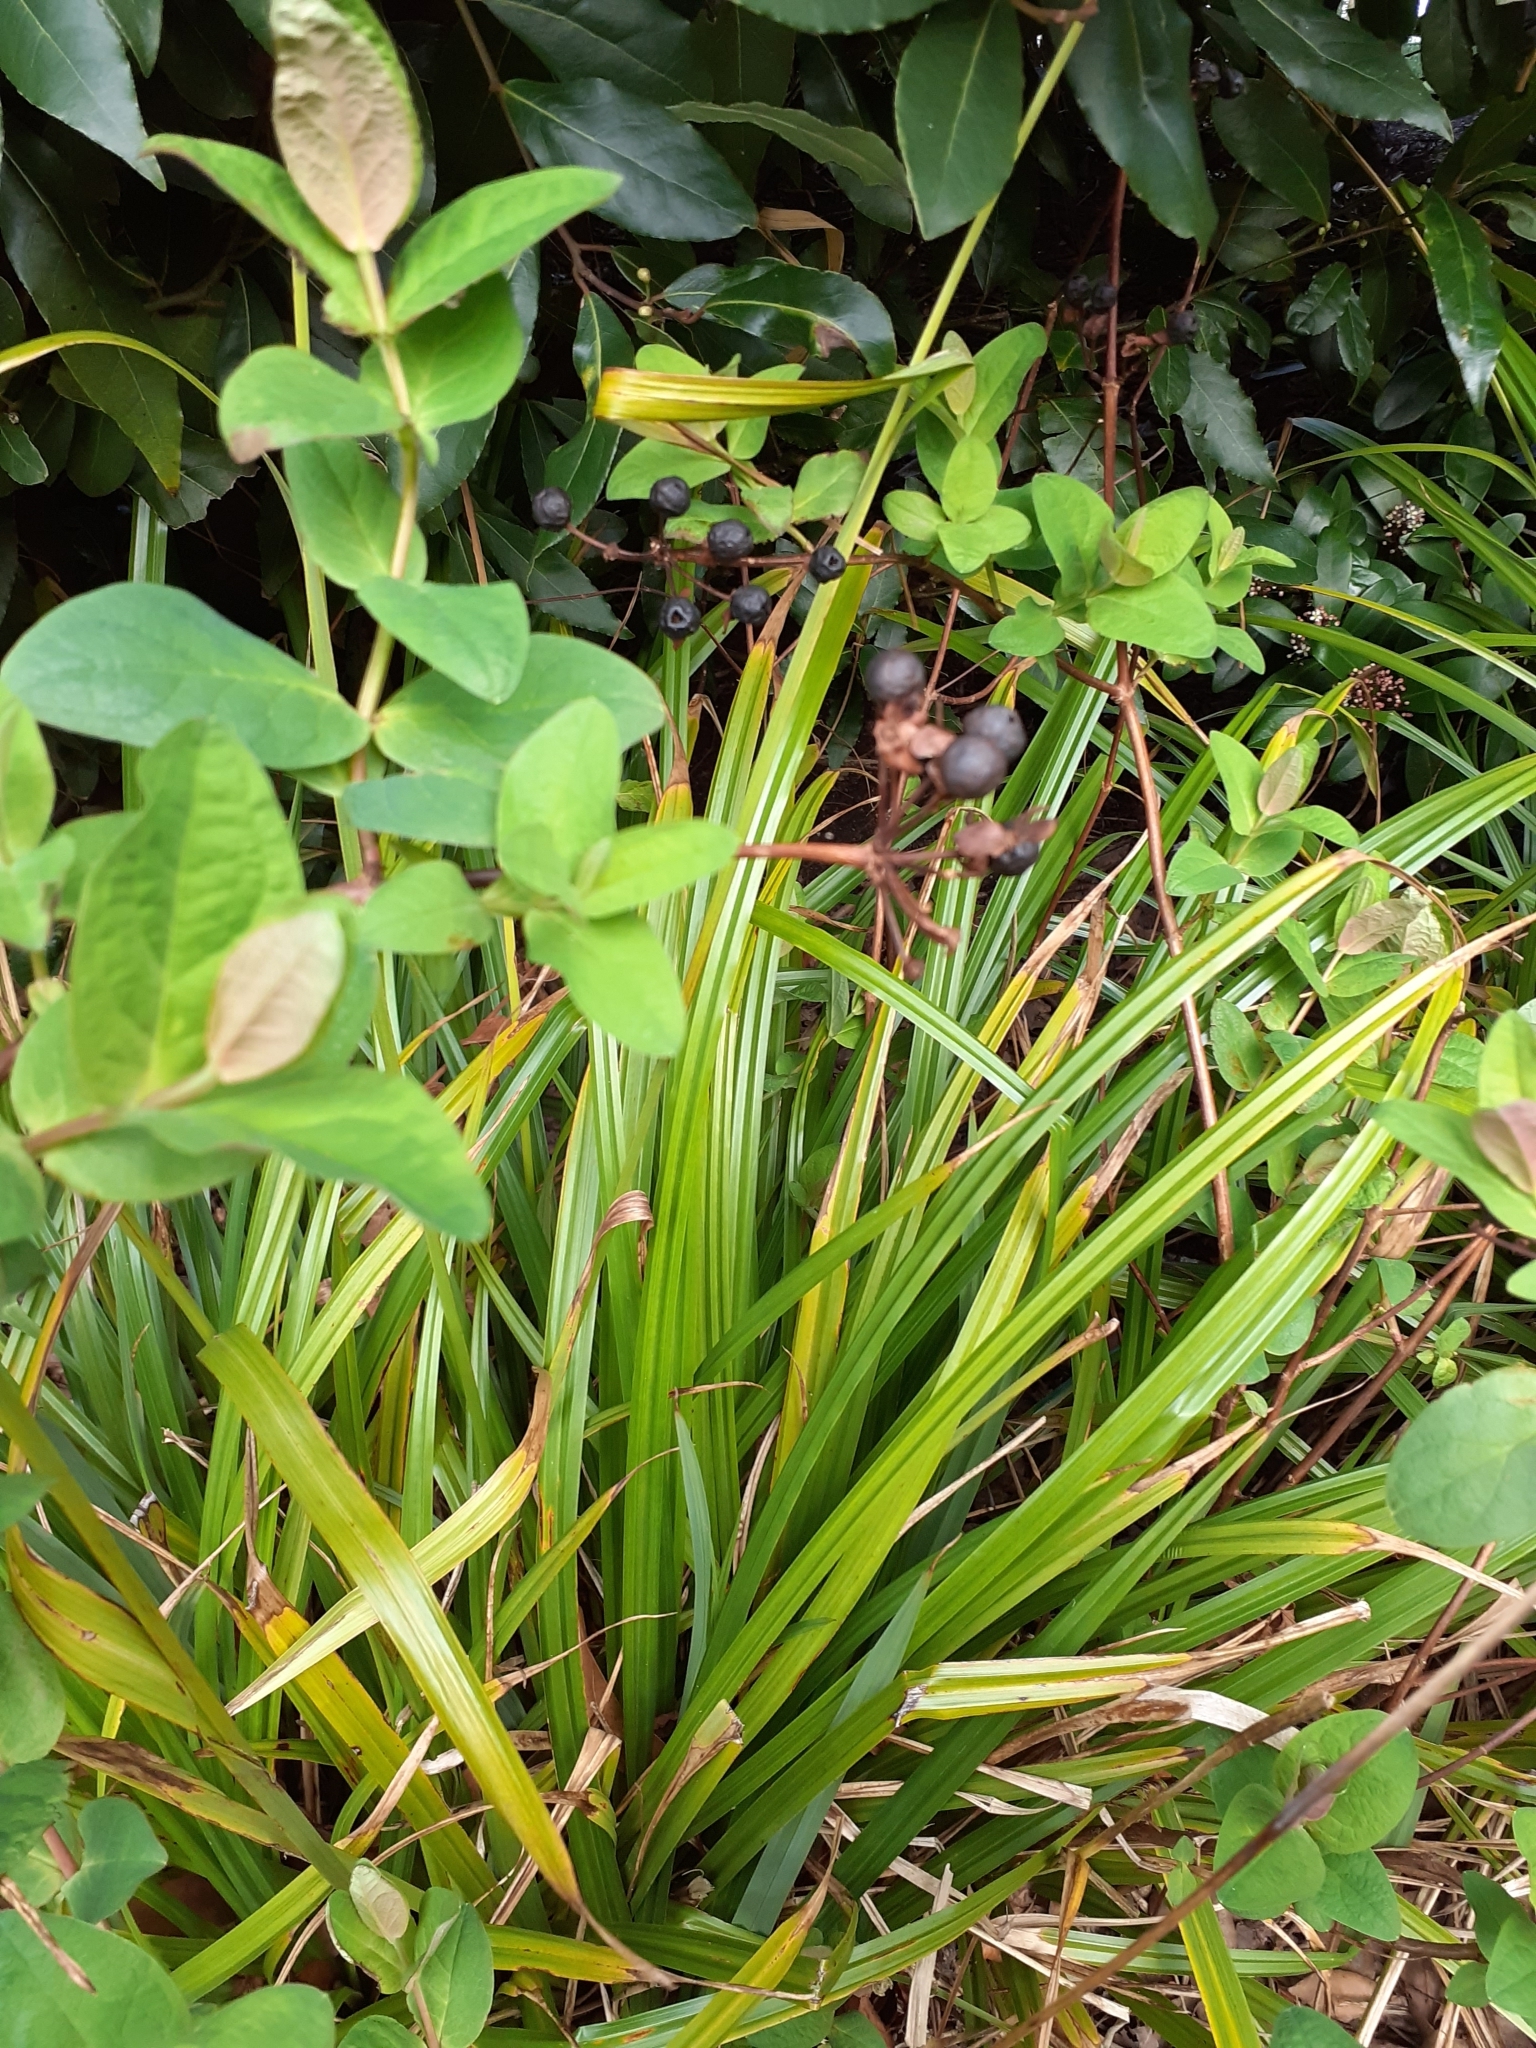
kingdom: Plantae
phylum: Tracheophyta
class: Magnoliopsida
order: Malpighiales
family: Hypericaceae
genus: Hypericum
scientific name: Hypericum androsaemum
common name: Sweet-amber
